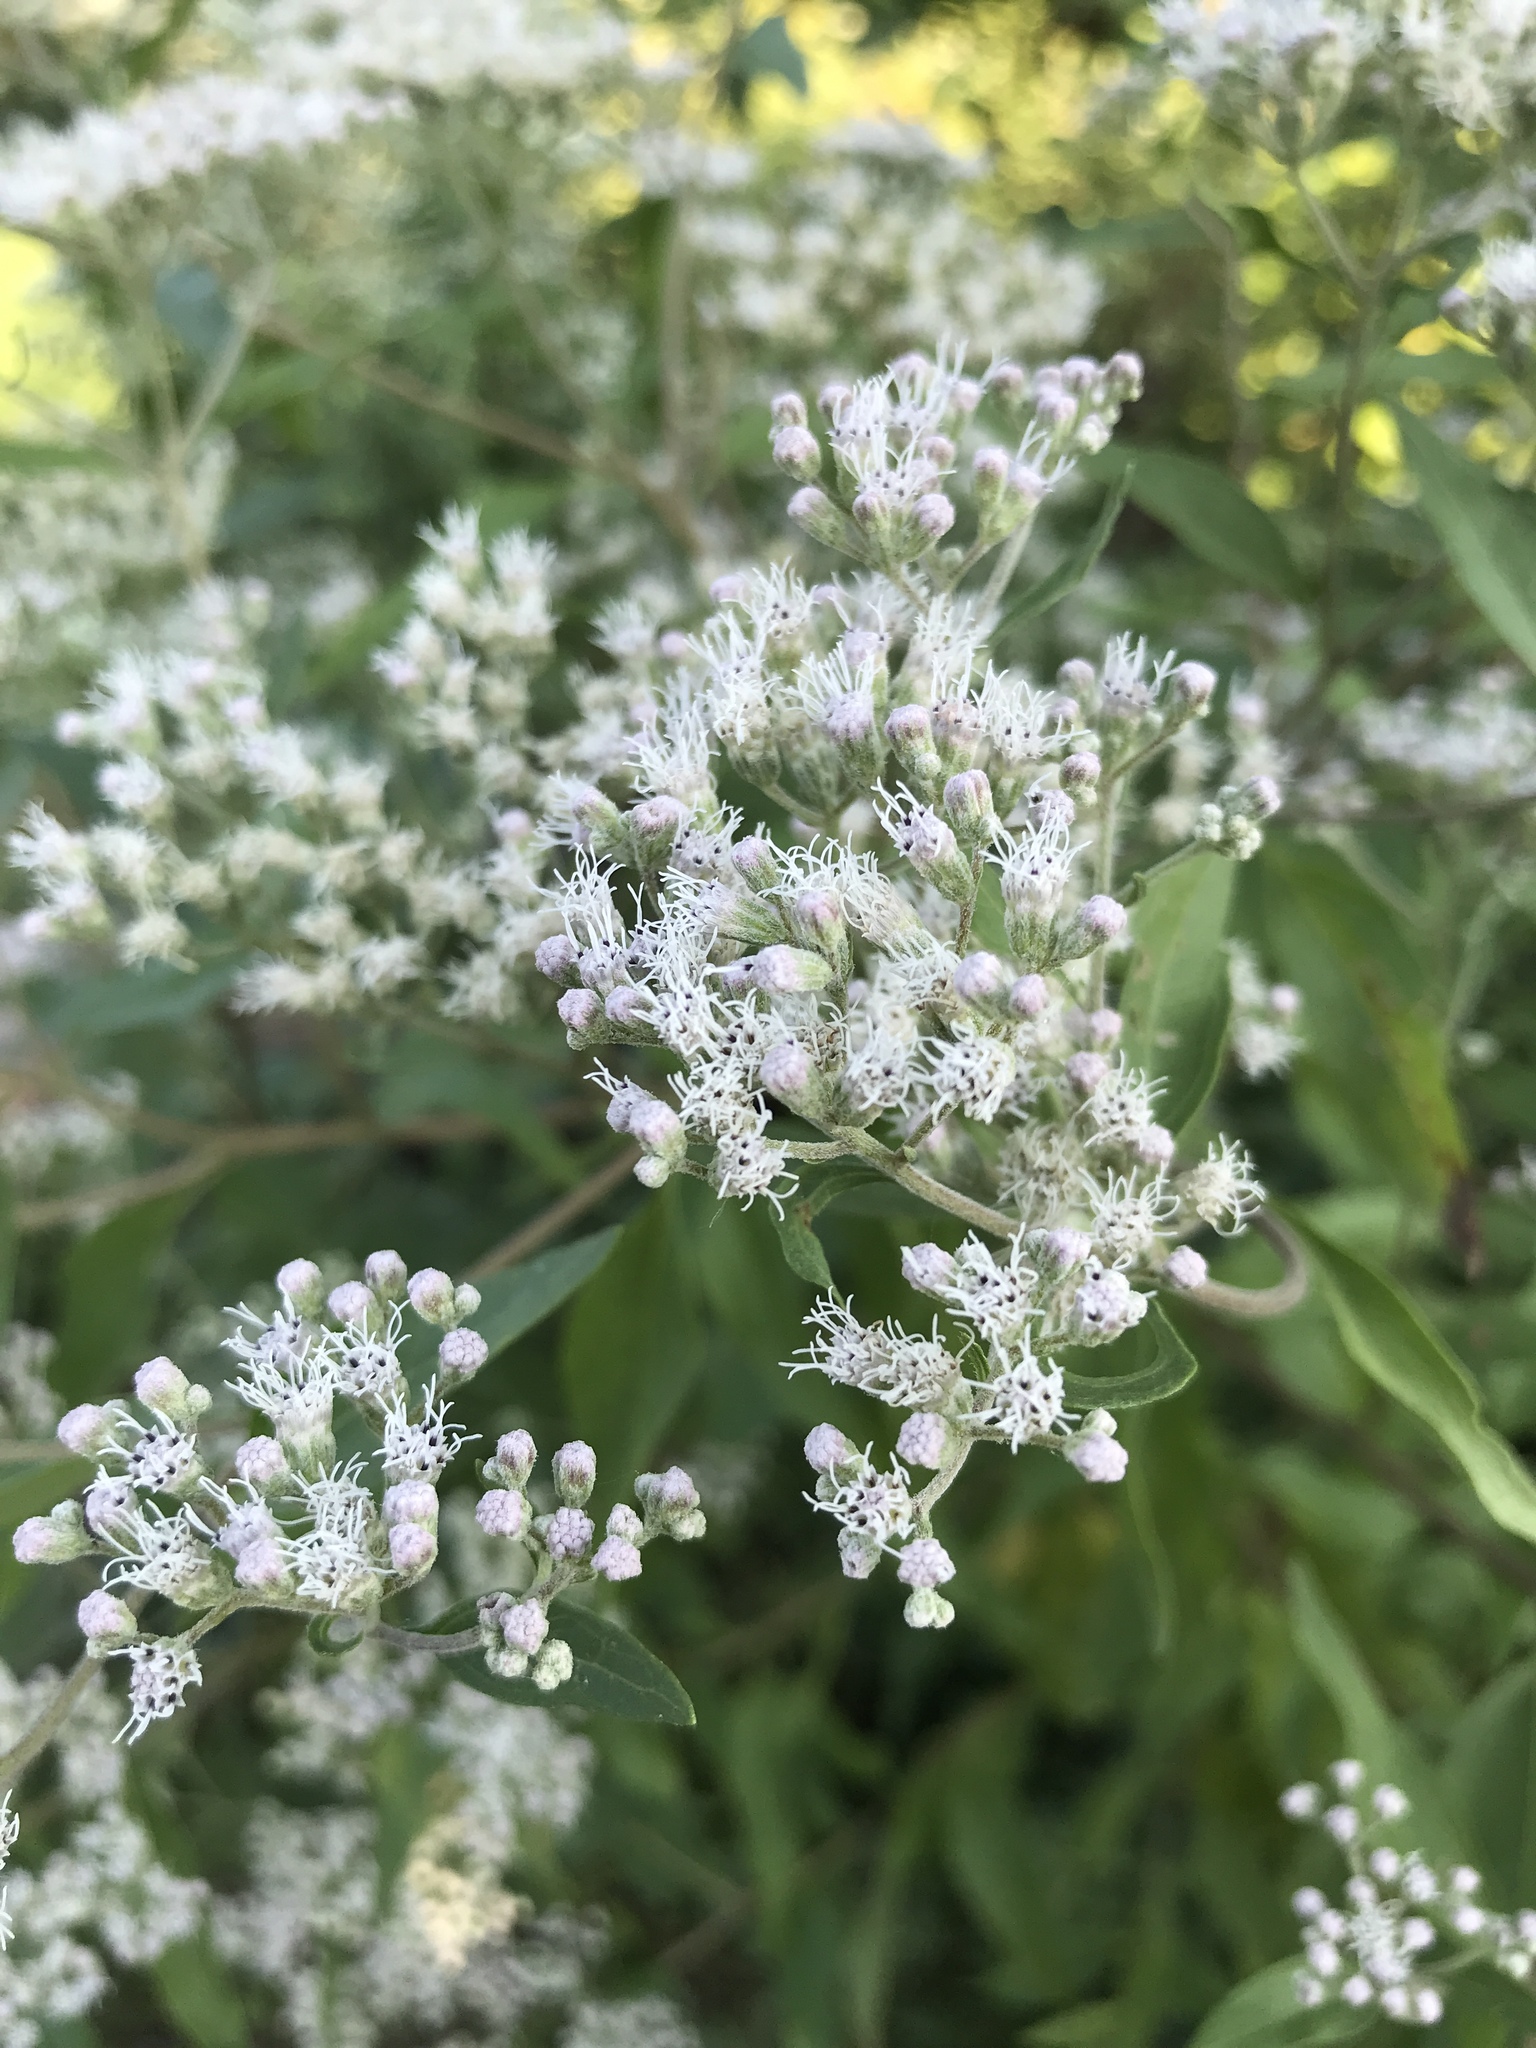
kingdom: Plantae
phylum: Tracheophyta
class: Magnoliopsida
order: Asterales
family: Asteraceae
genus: Eupatorium
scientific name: Eupatorium serotinum
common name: Late boneset
